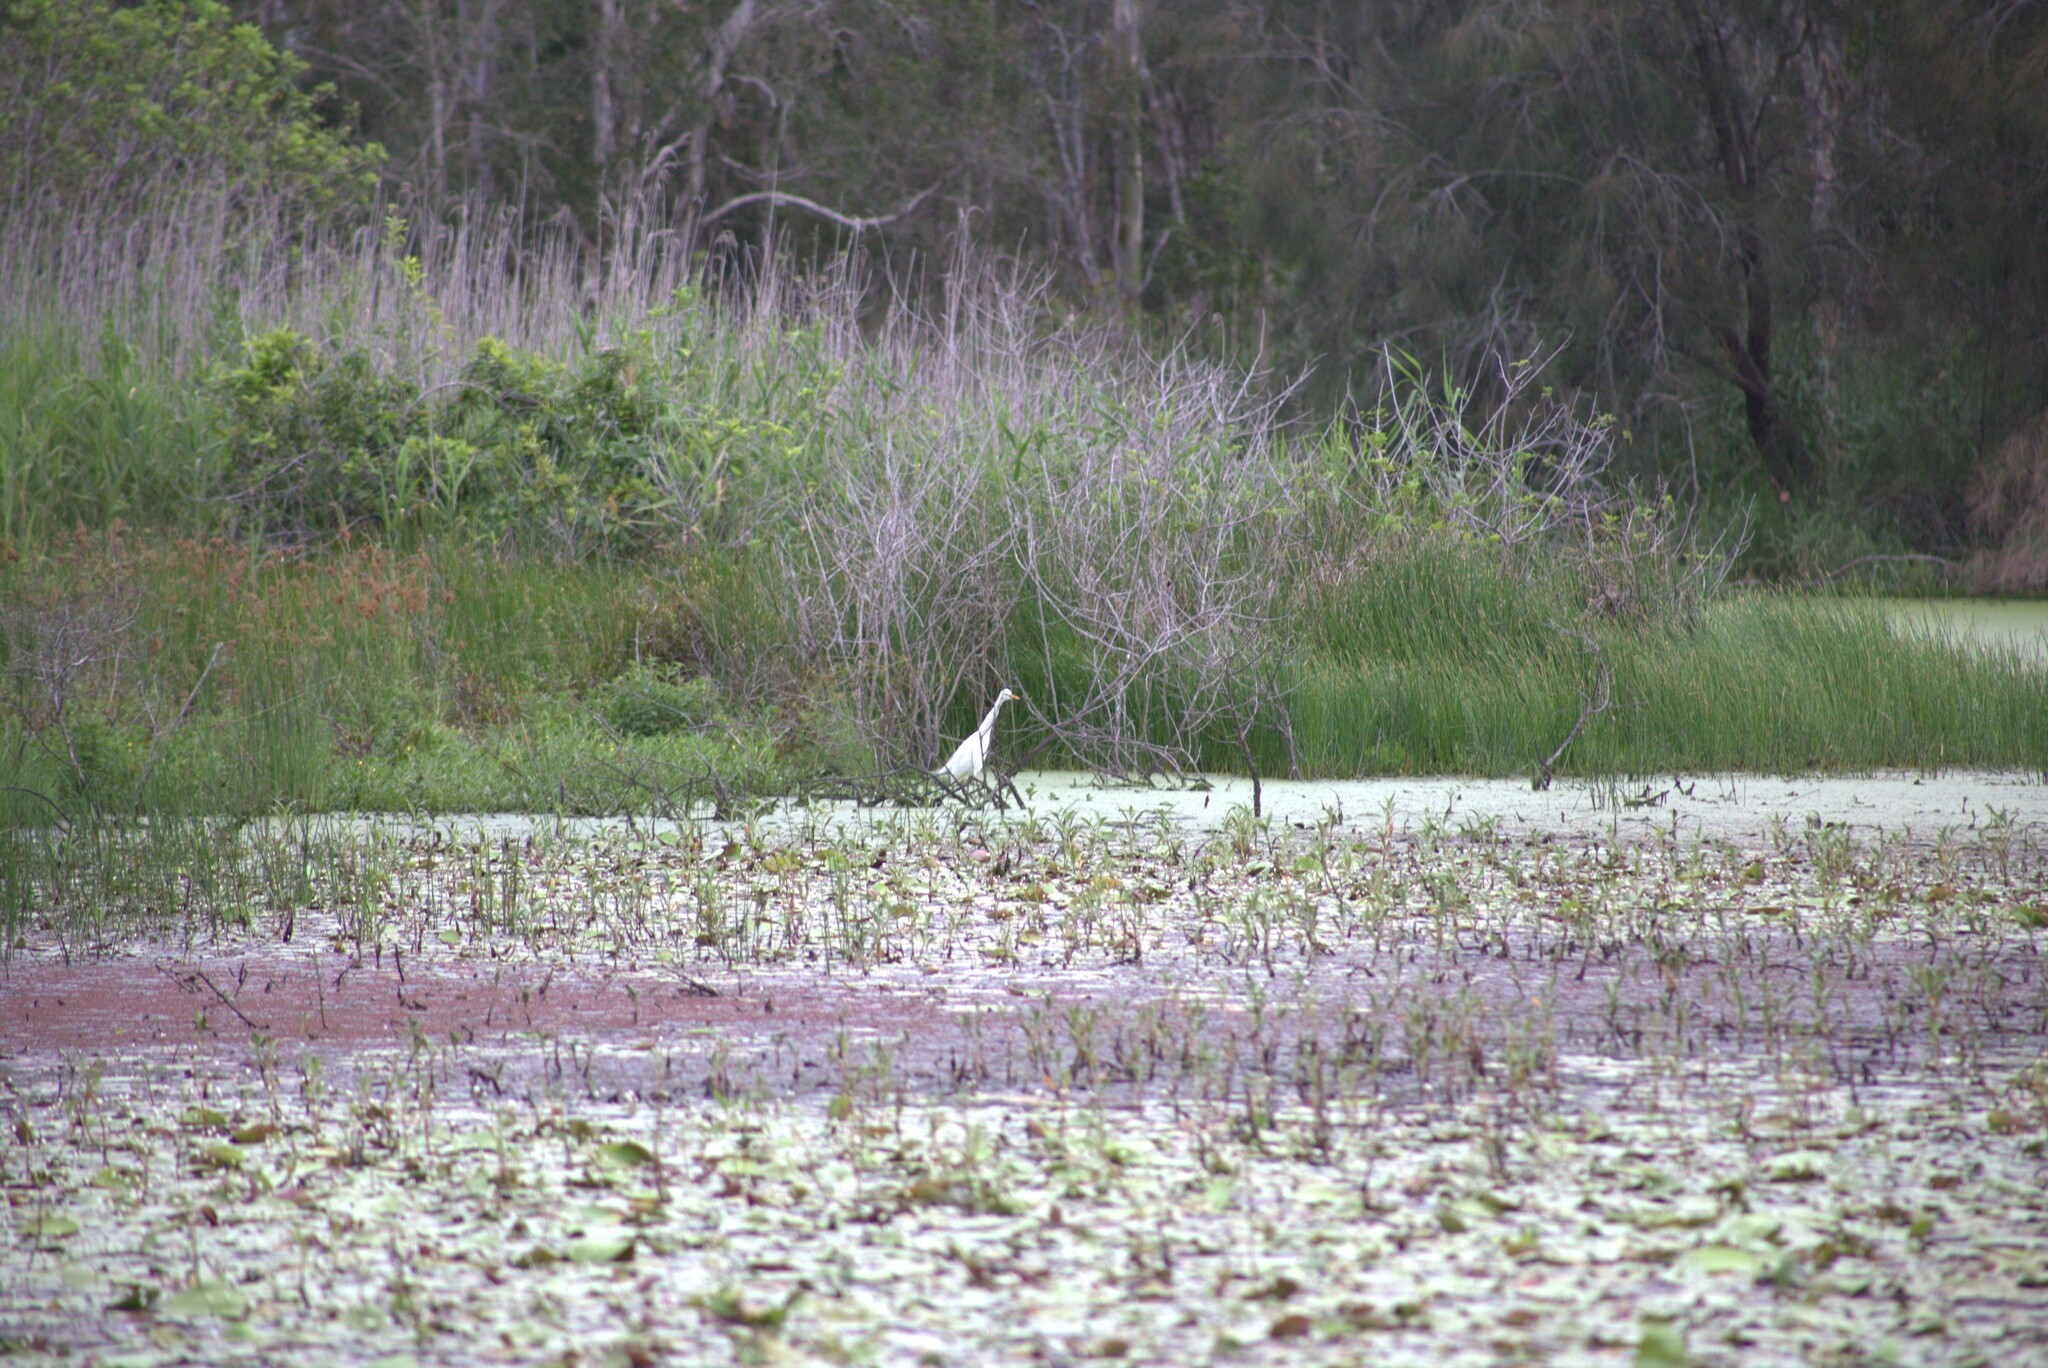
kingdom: Animalia
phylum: Chordata
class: Aves
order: Pelecaniformes
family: Ardeidae
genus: Egretta
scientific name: Egretta intermedia
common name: Intermediate egret
